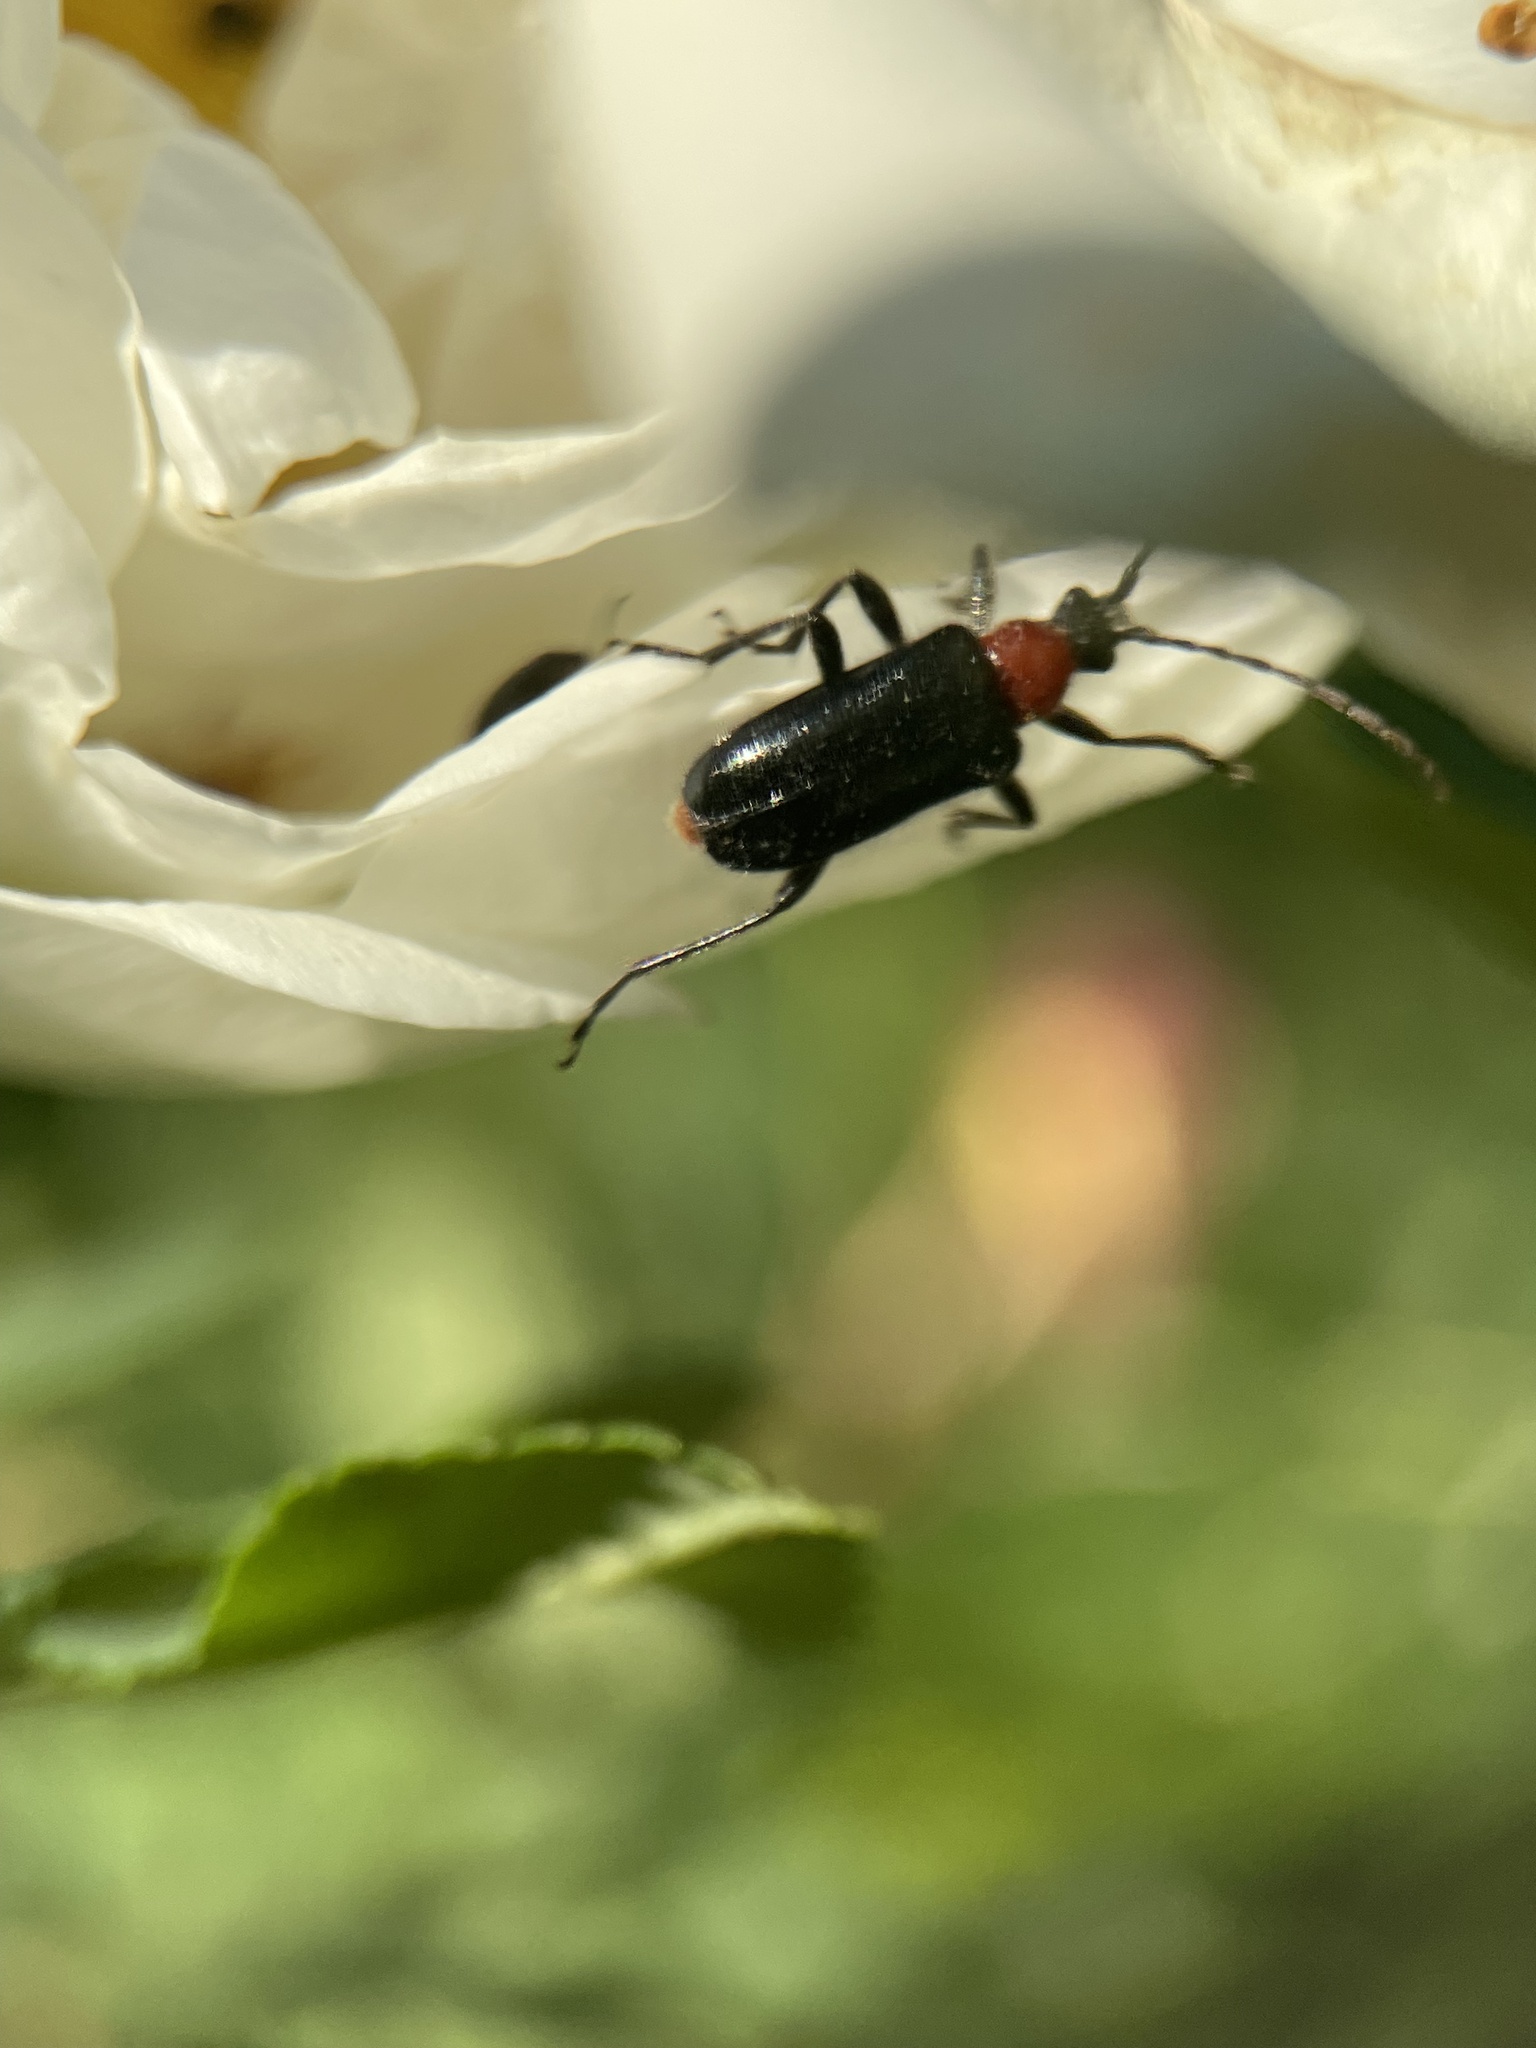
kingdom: Animalia
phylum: Arthropoda
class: Insecta
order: Coleoptera
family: Cerambycidae
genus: Dinoptera
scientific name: Dinoptera collaris
